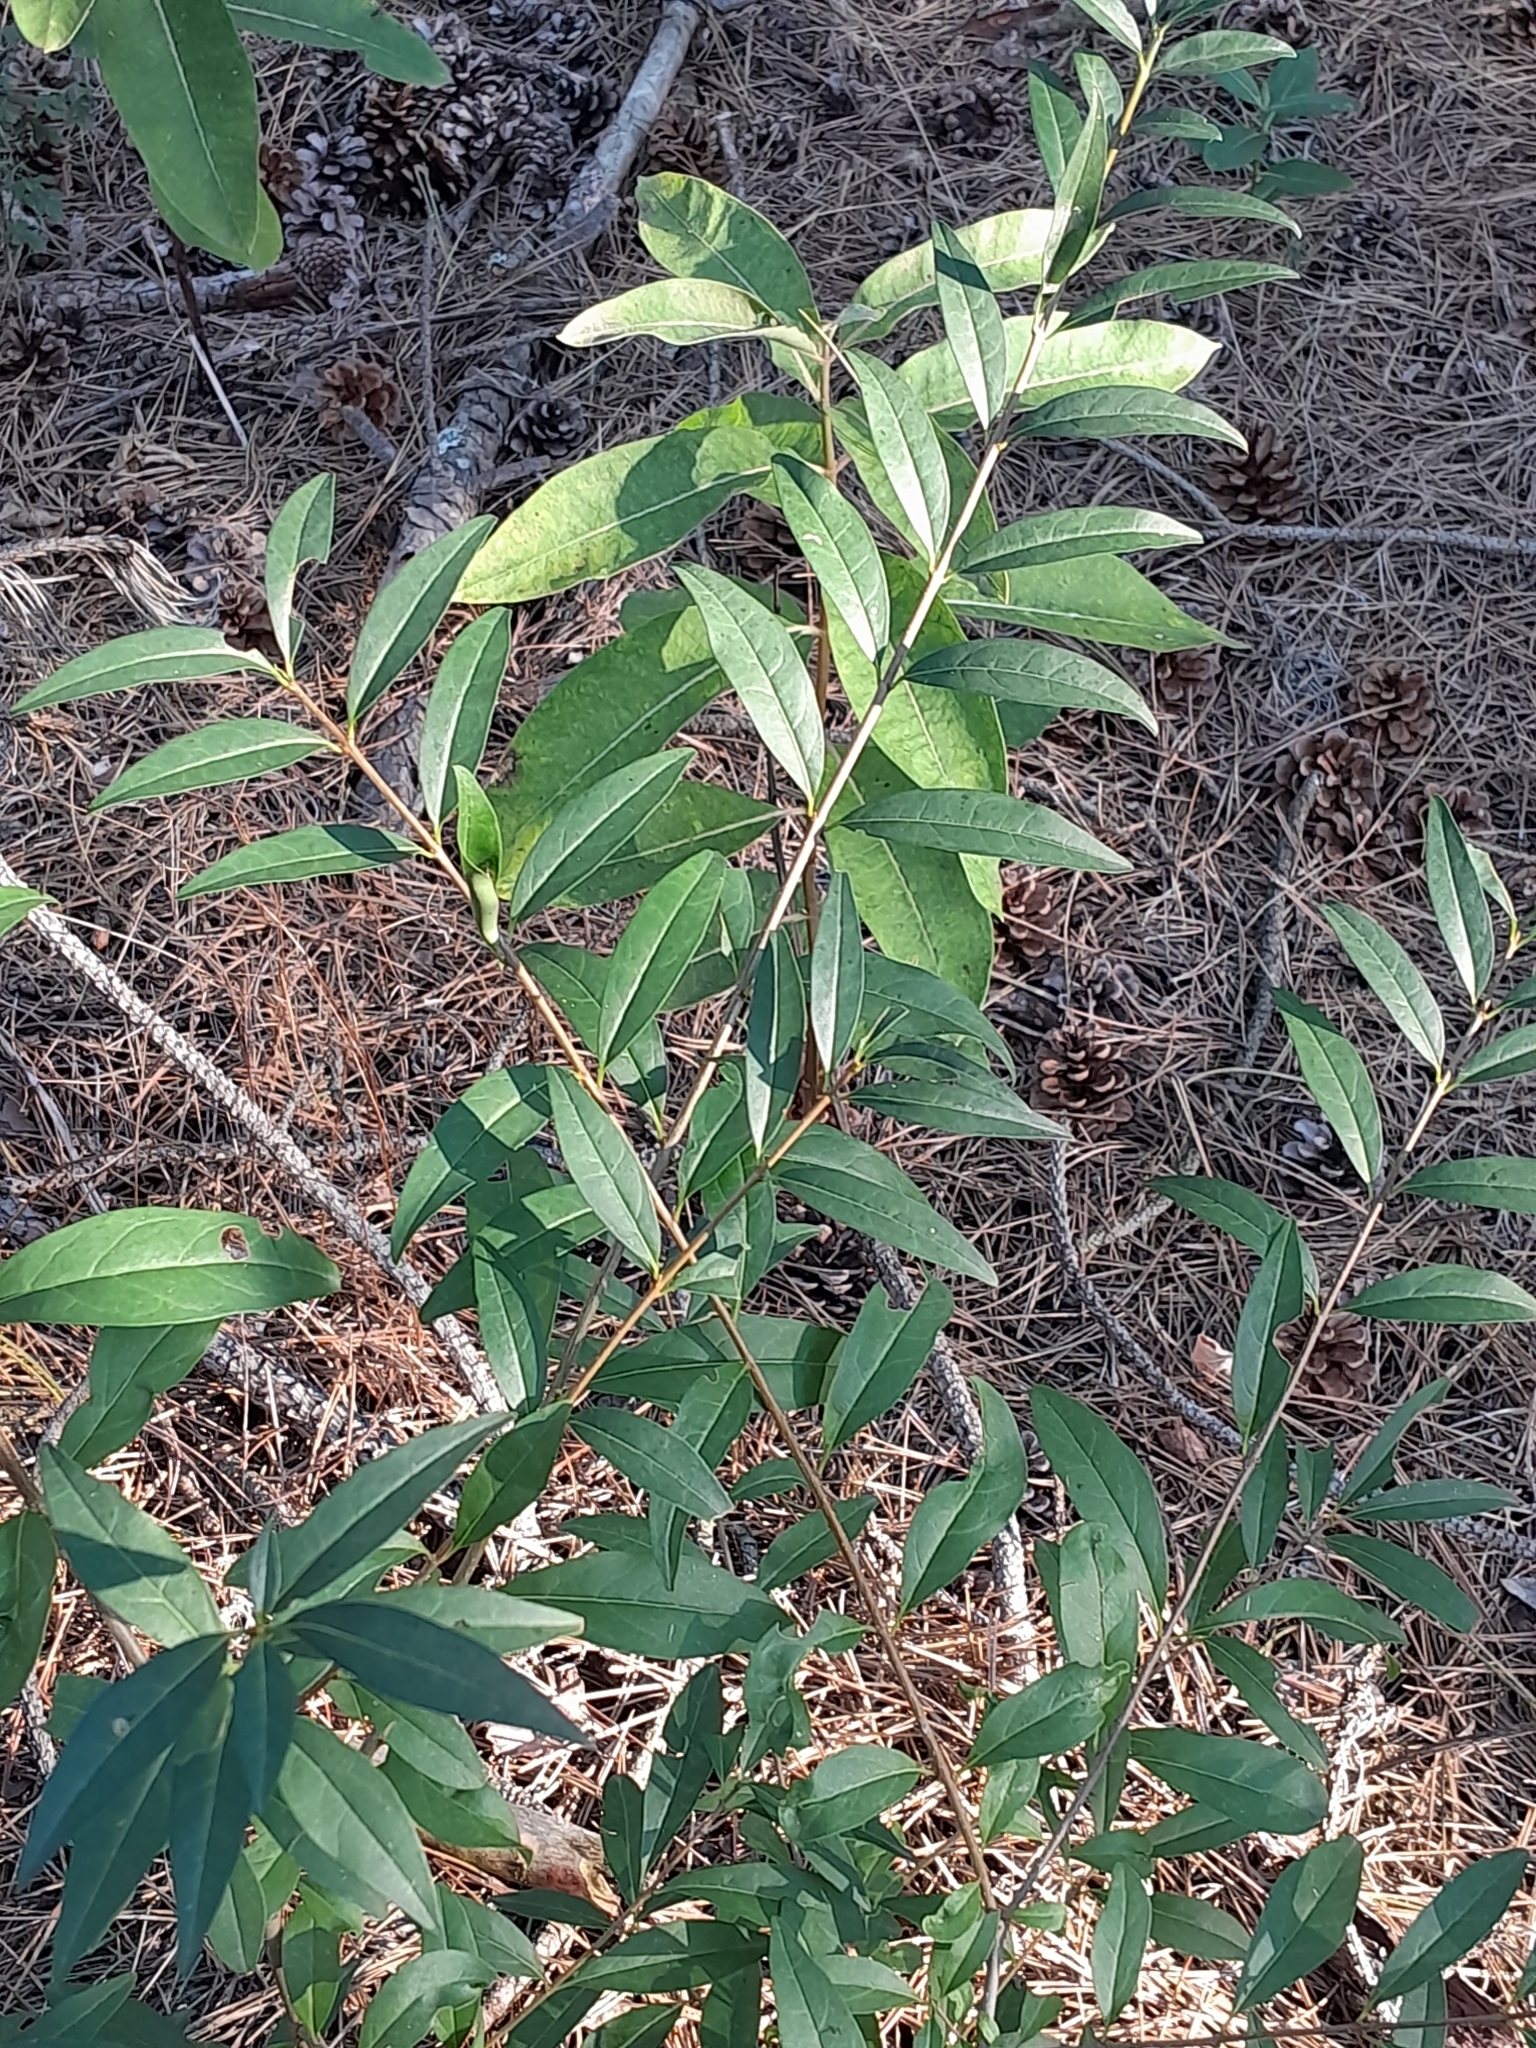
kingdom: Plantae
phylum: Tracheophyta
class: Magnoliopsida
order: Lamiales
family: Oleaceae
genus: Ligustrum
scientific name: Ligustrum vulgare
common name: Wild privet
